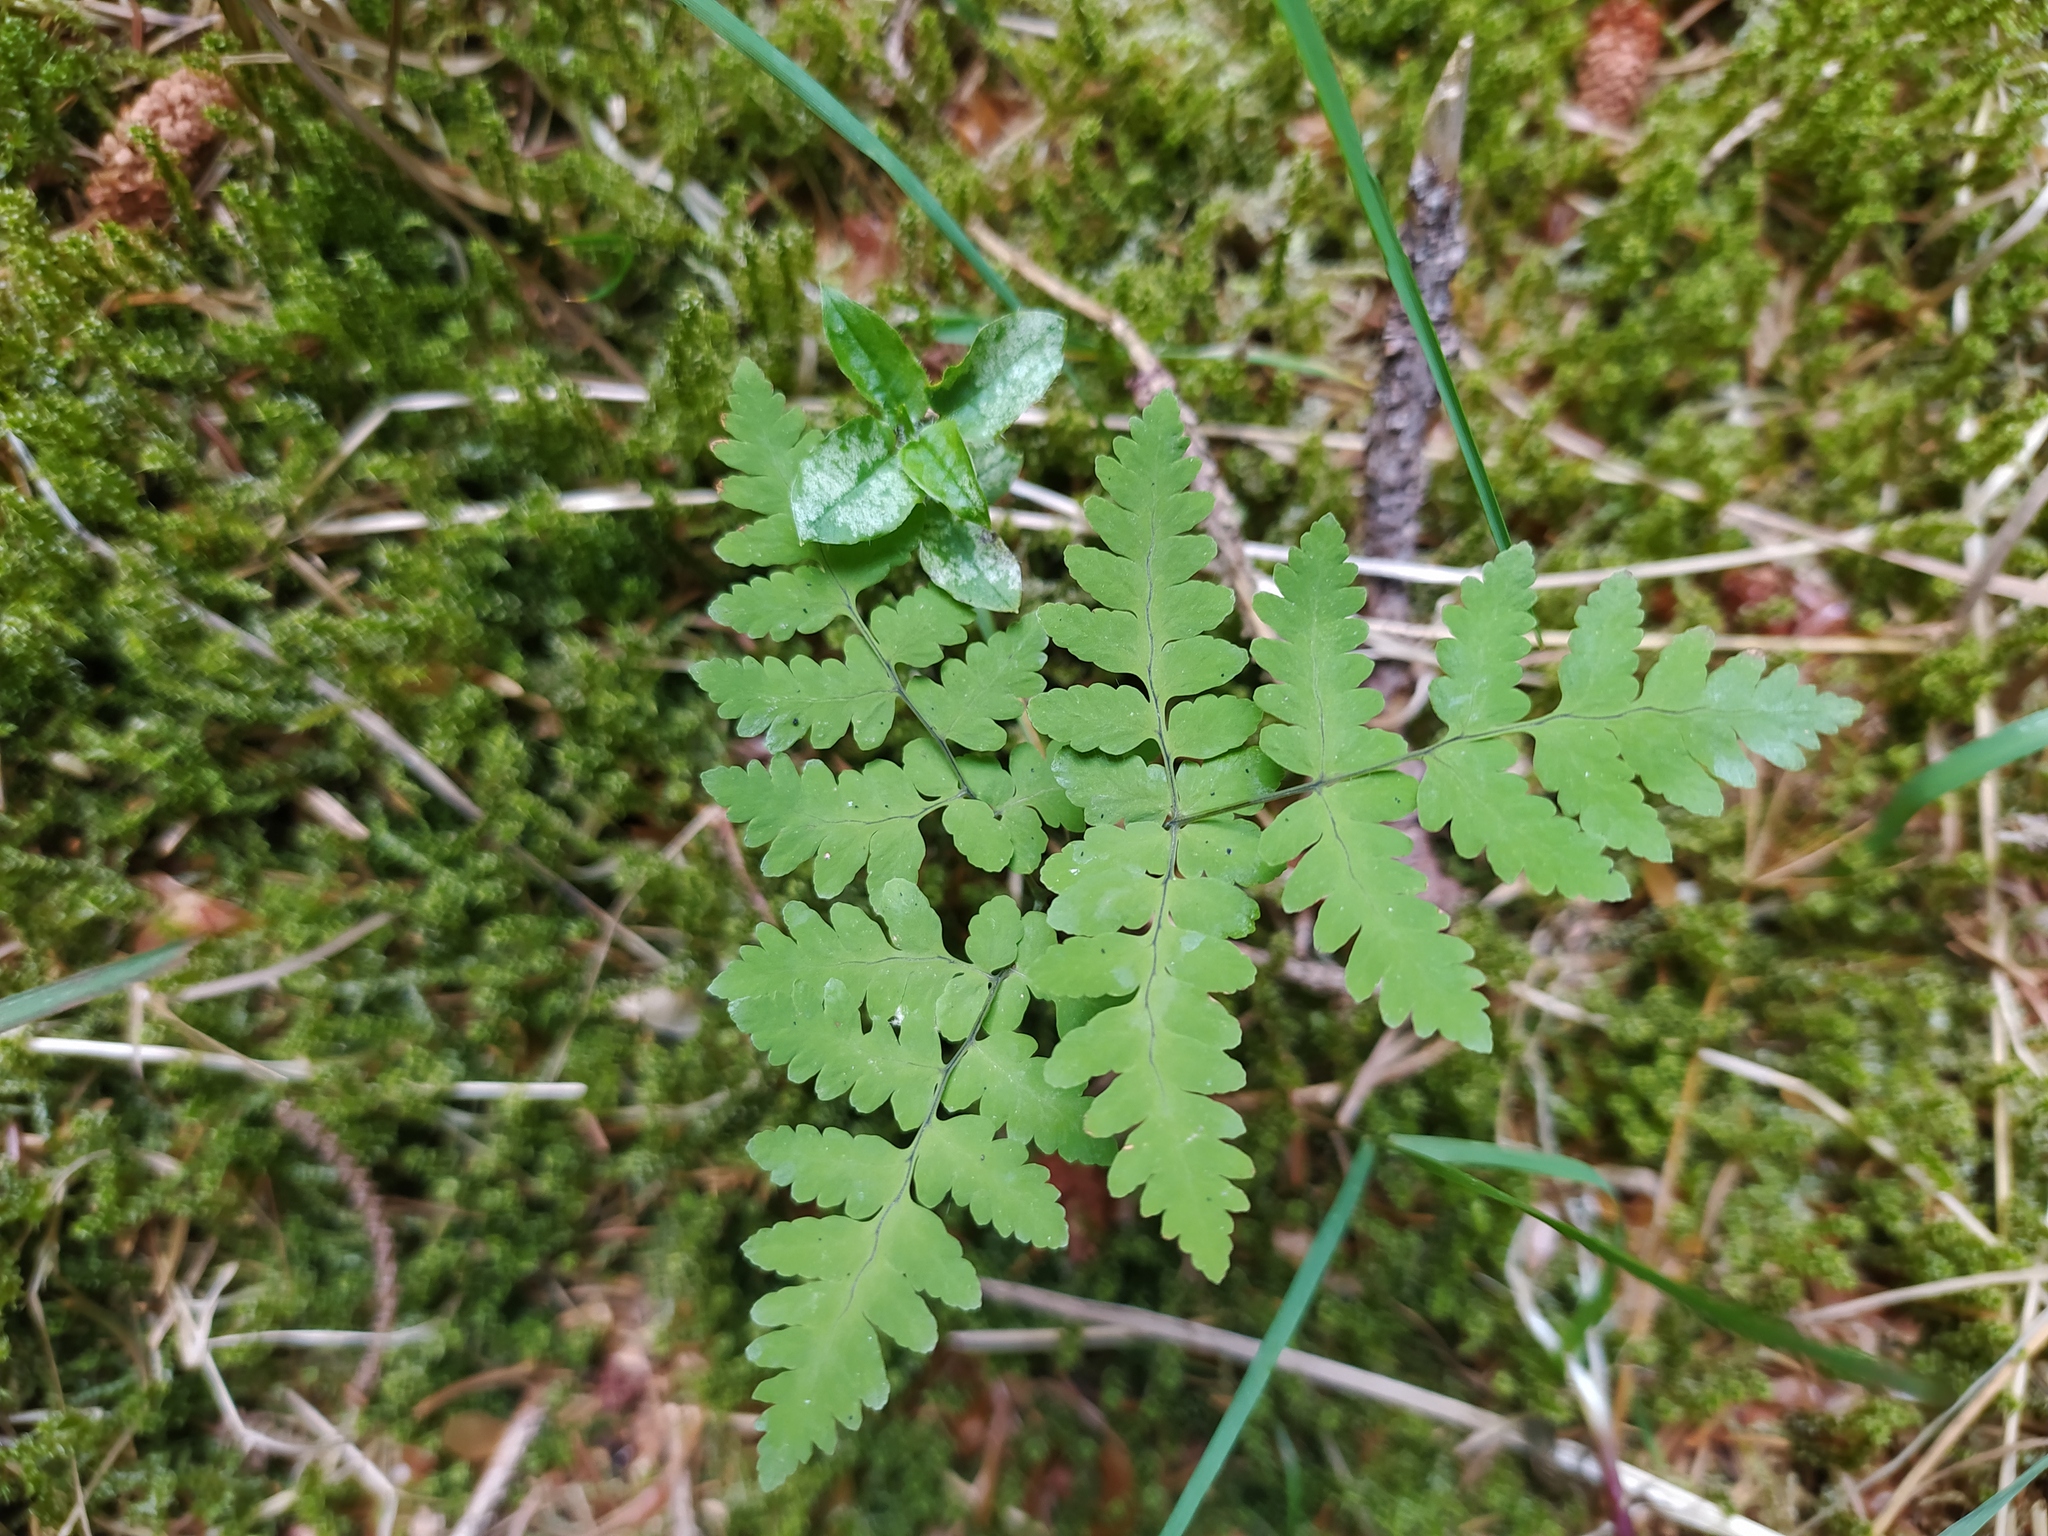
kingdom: Plantae
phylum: Tracheophyta
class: Polypodiopsida
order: Polypodiales
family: Cystopteridaceae
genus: Gymnocarpium
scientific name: Gymnocarpium dryopteris
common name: Oak fern
